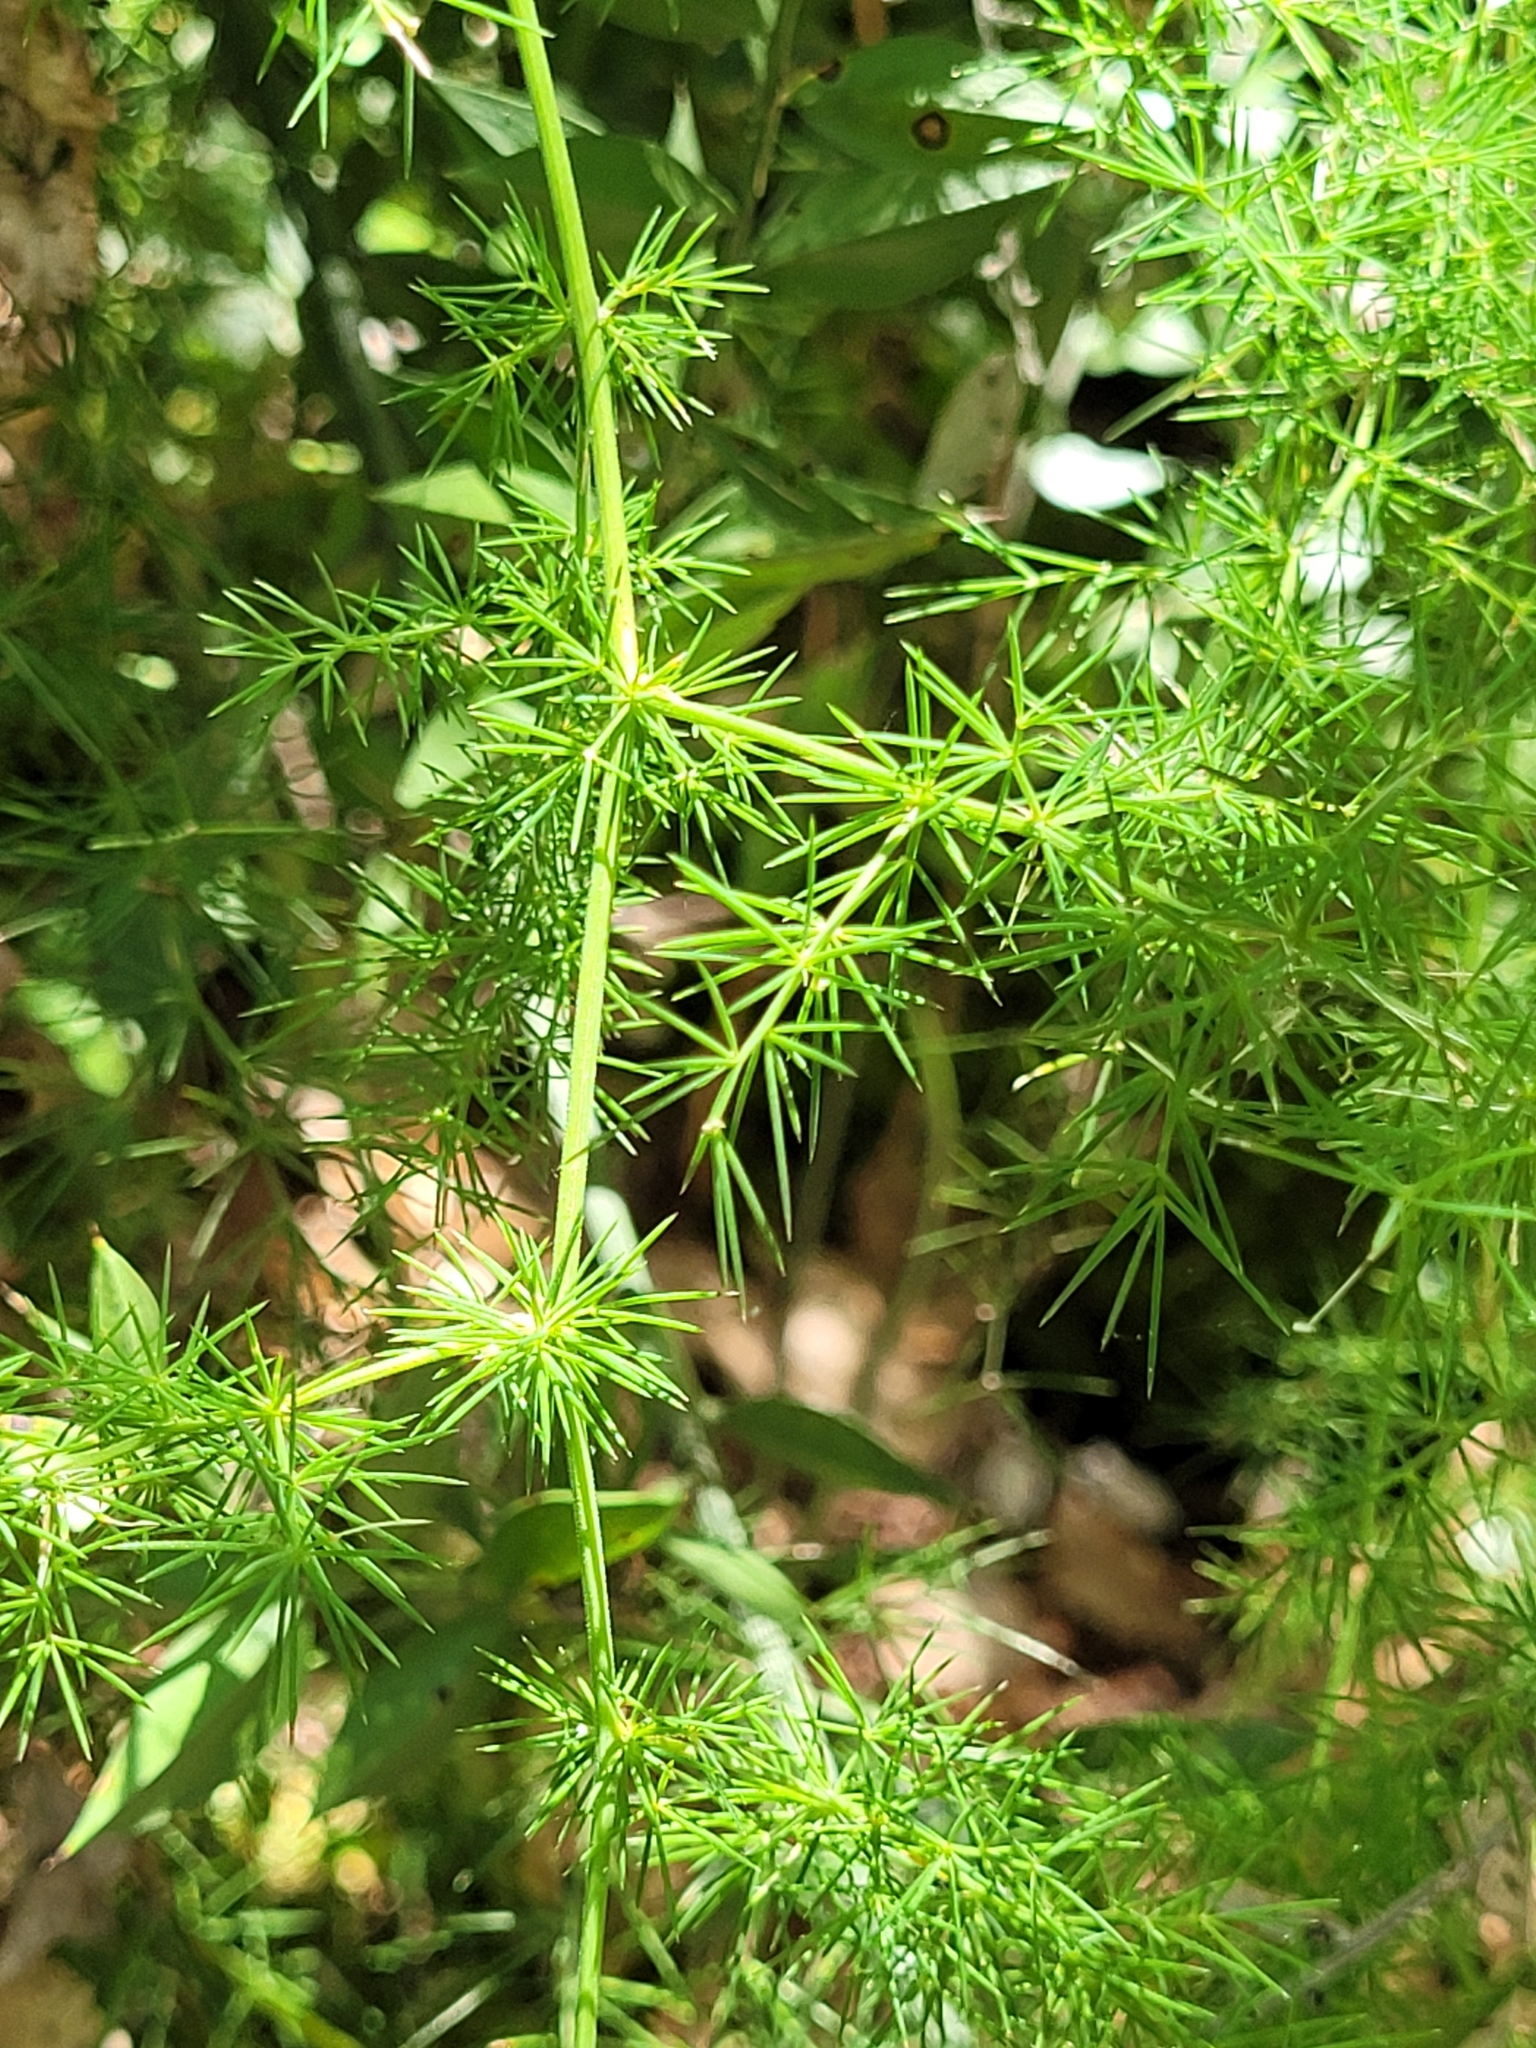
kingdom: Plantae
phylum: Tracheophyta
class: Liliopsida
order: Asparagales
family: Asparagaceae
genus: Asparagus
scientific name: Asparagus acutifolius
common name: Wild asparagus
